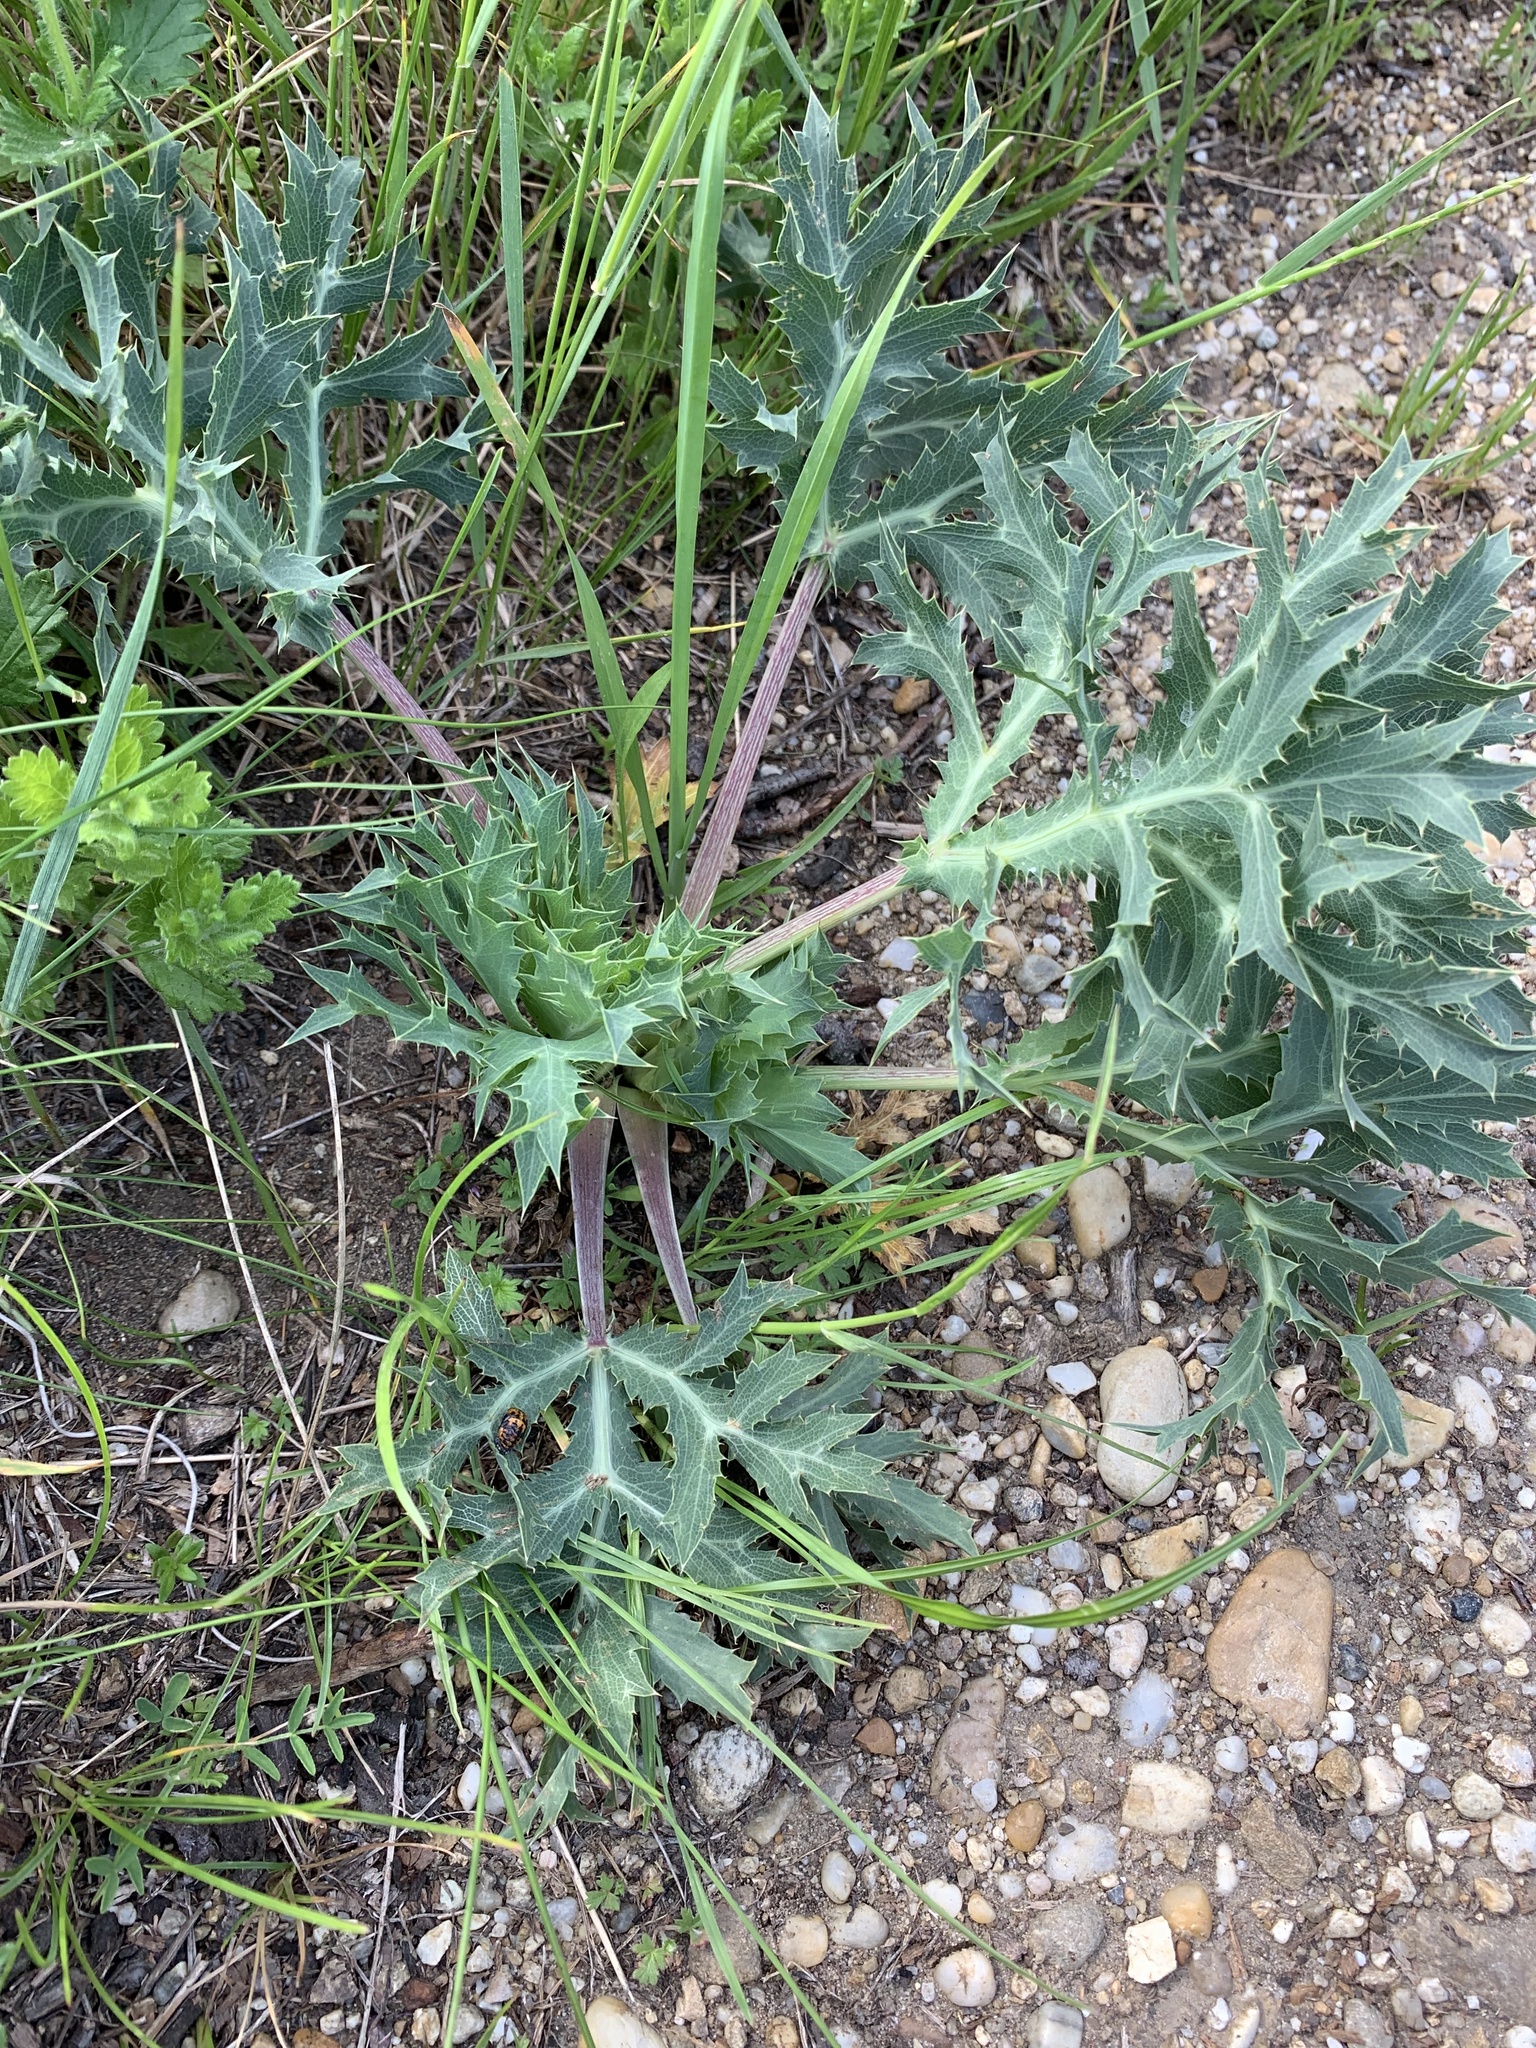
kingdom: Plantae
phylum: Tracheophyta
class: Magnoliopsida
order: Apiales
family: Apiaceae
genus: Eryngium
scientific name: Eryngium campestre
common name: Field eryngo
